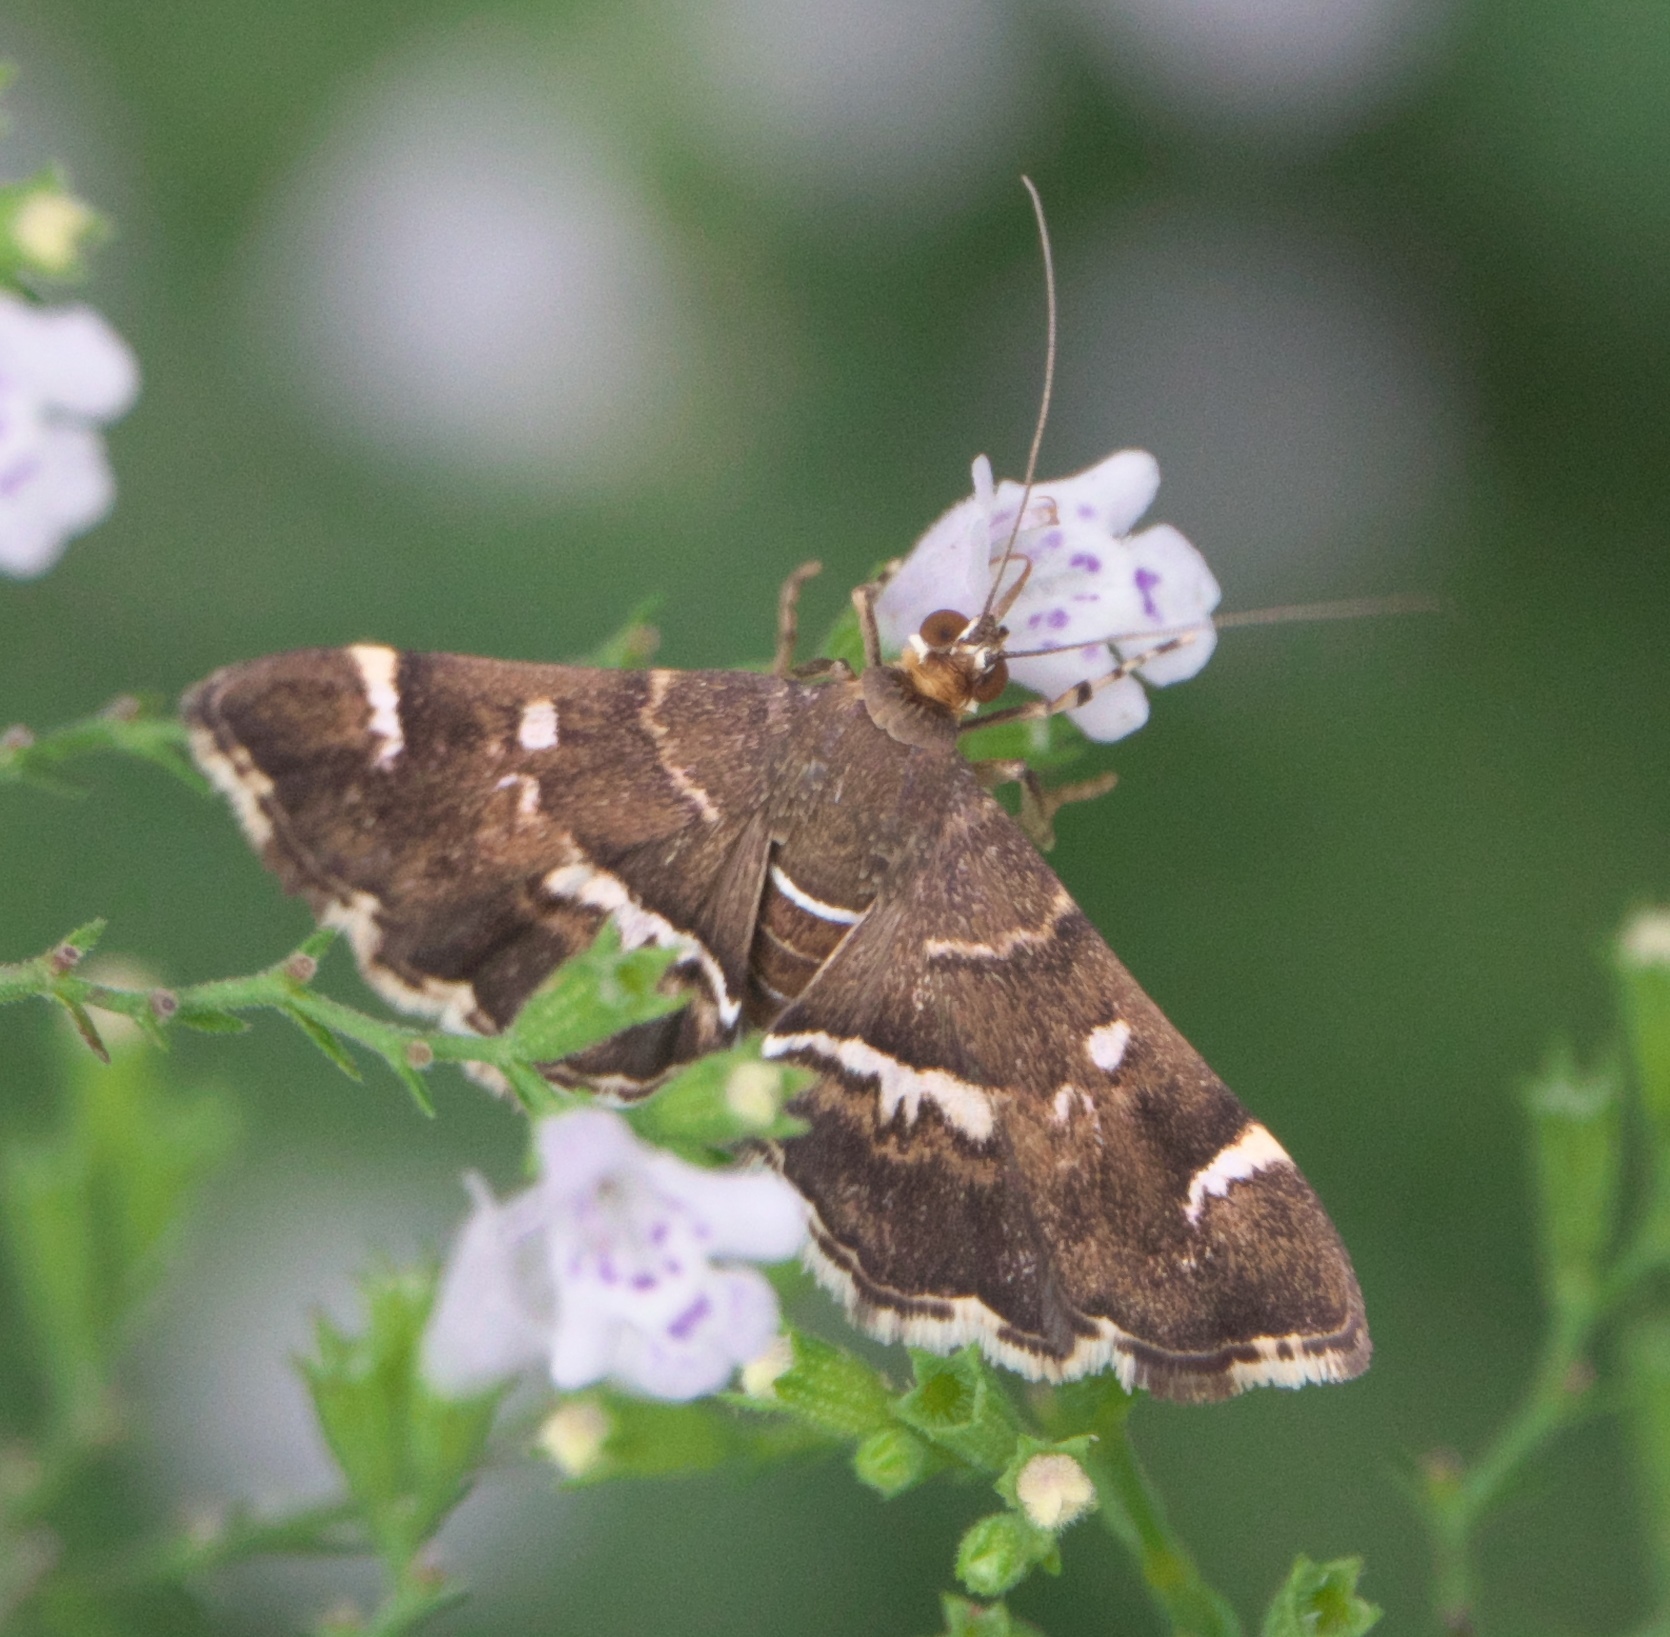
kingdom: Animalia
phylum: Arthropoda
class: Insecta
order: Lepidoptera
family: Crambidae
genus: Hymenia
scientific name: Hymenia perspectalis
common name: Spotted beet webworm
